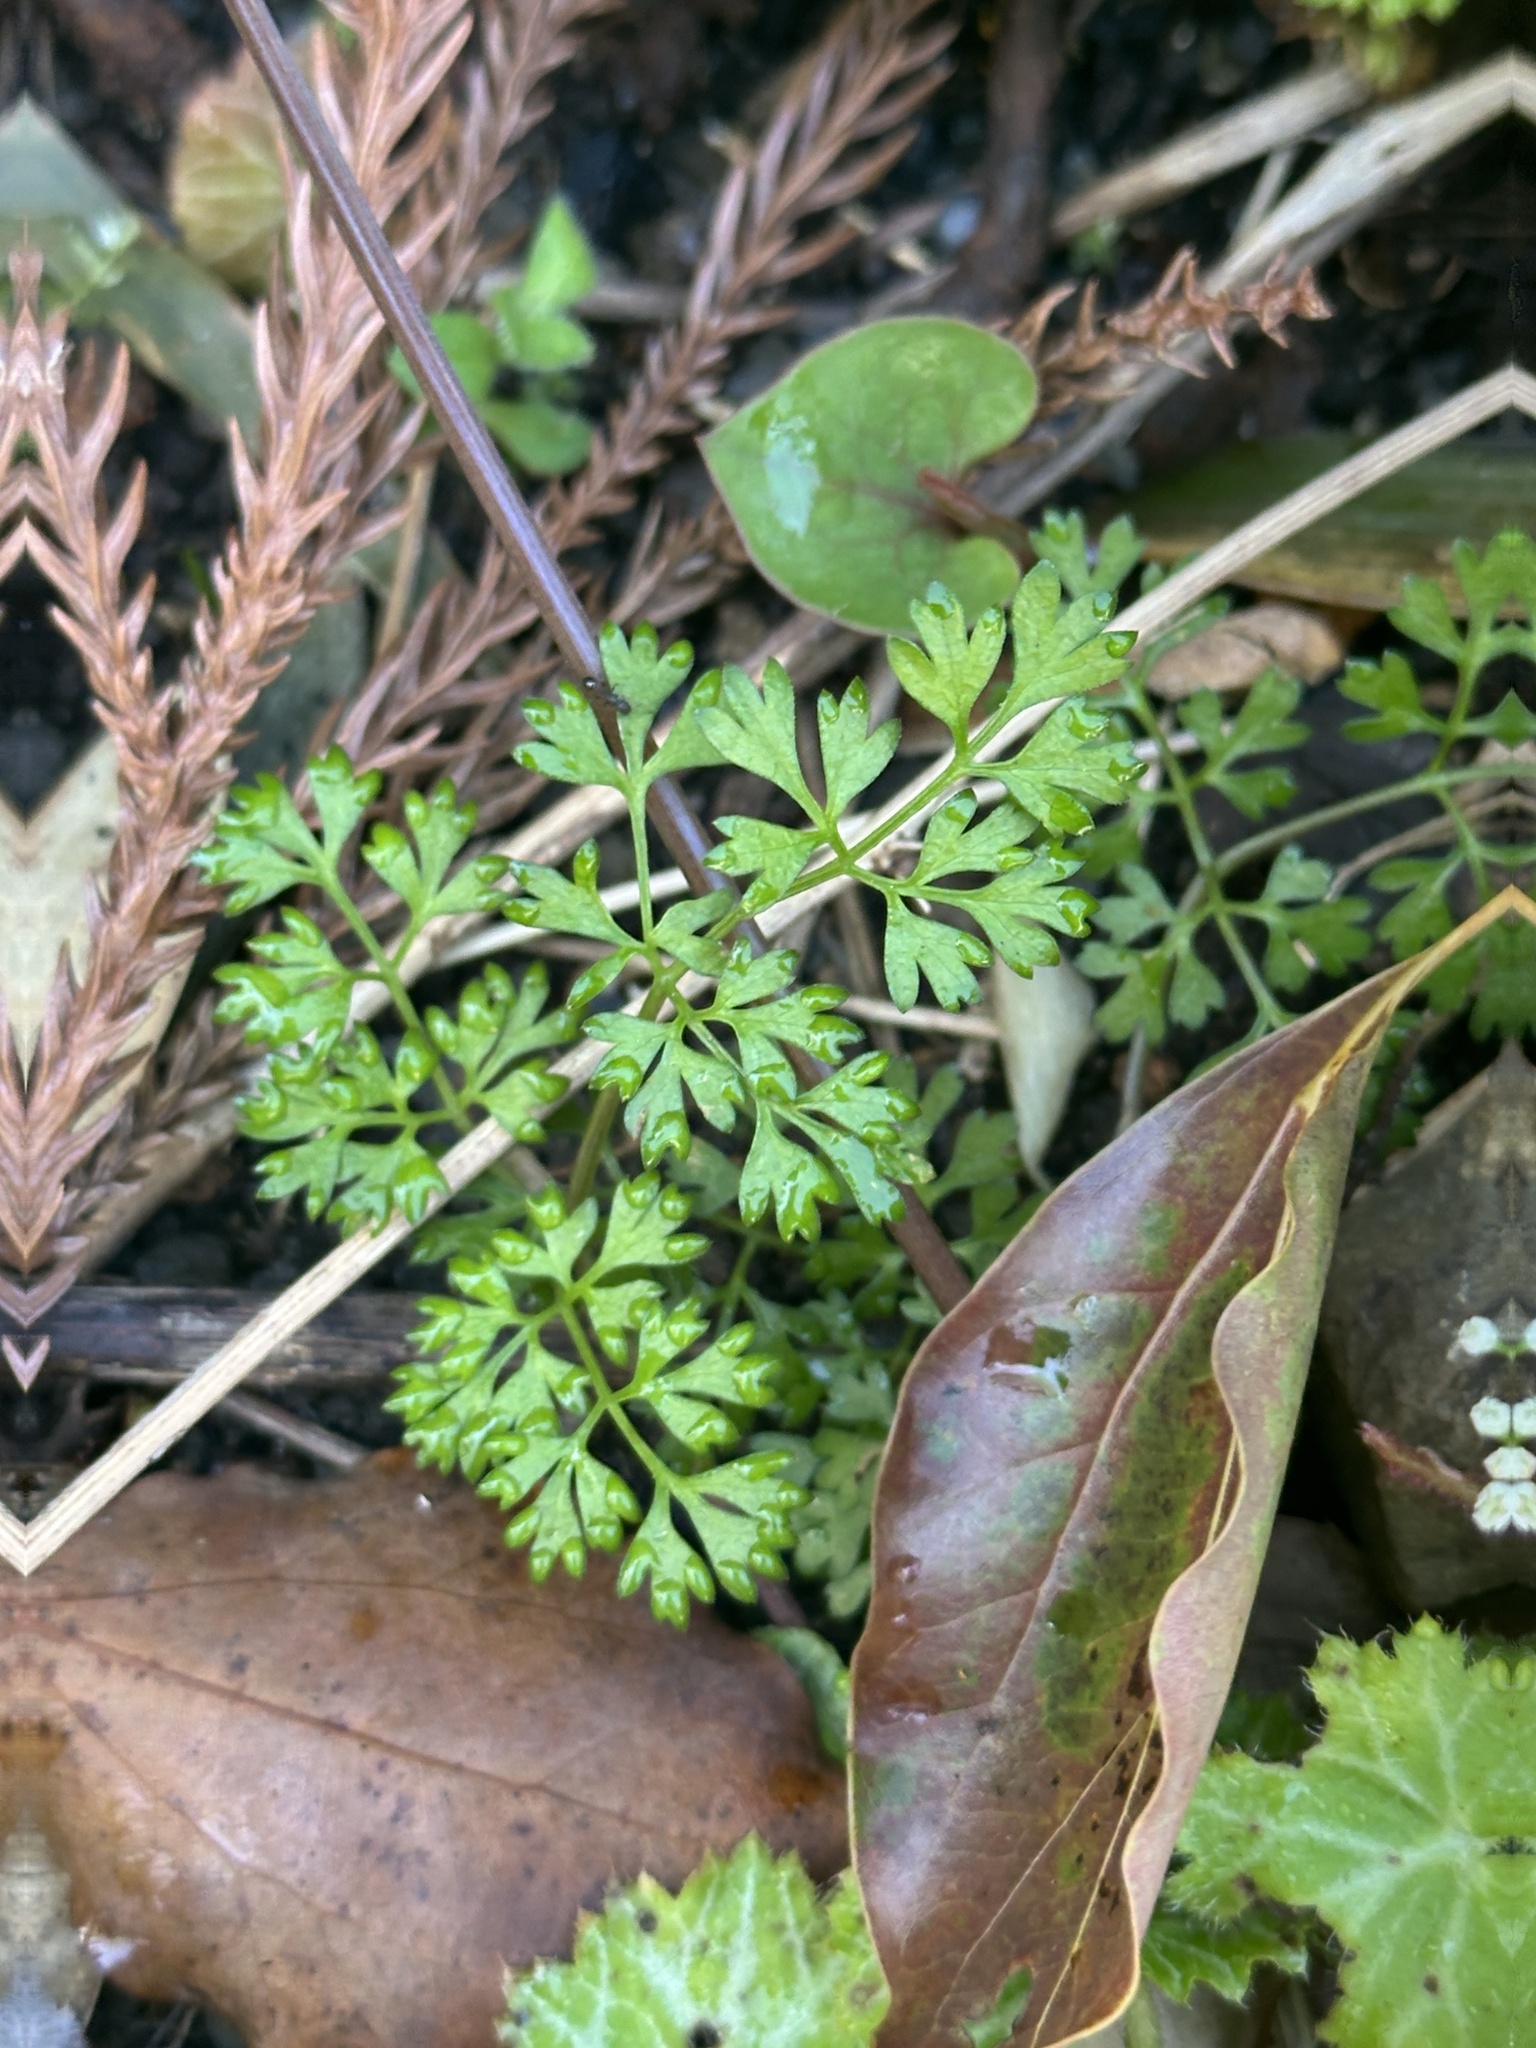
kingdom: Plantae
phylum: Tracheophyta
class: Magnoliopsida
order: Apiales
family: Apiaceae
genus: Aegopodium
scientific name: Aegopodium decumbens
